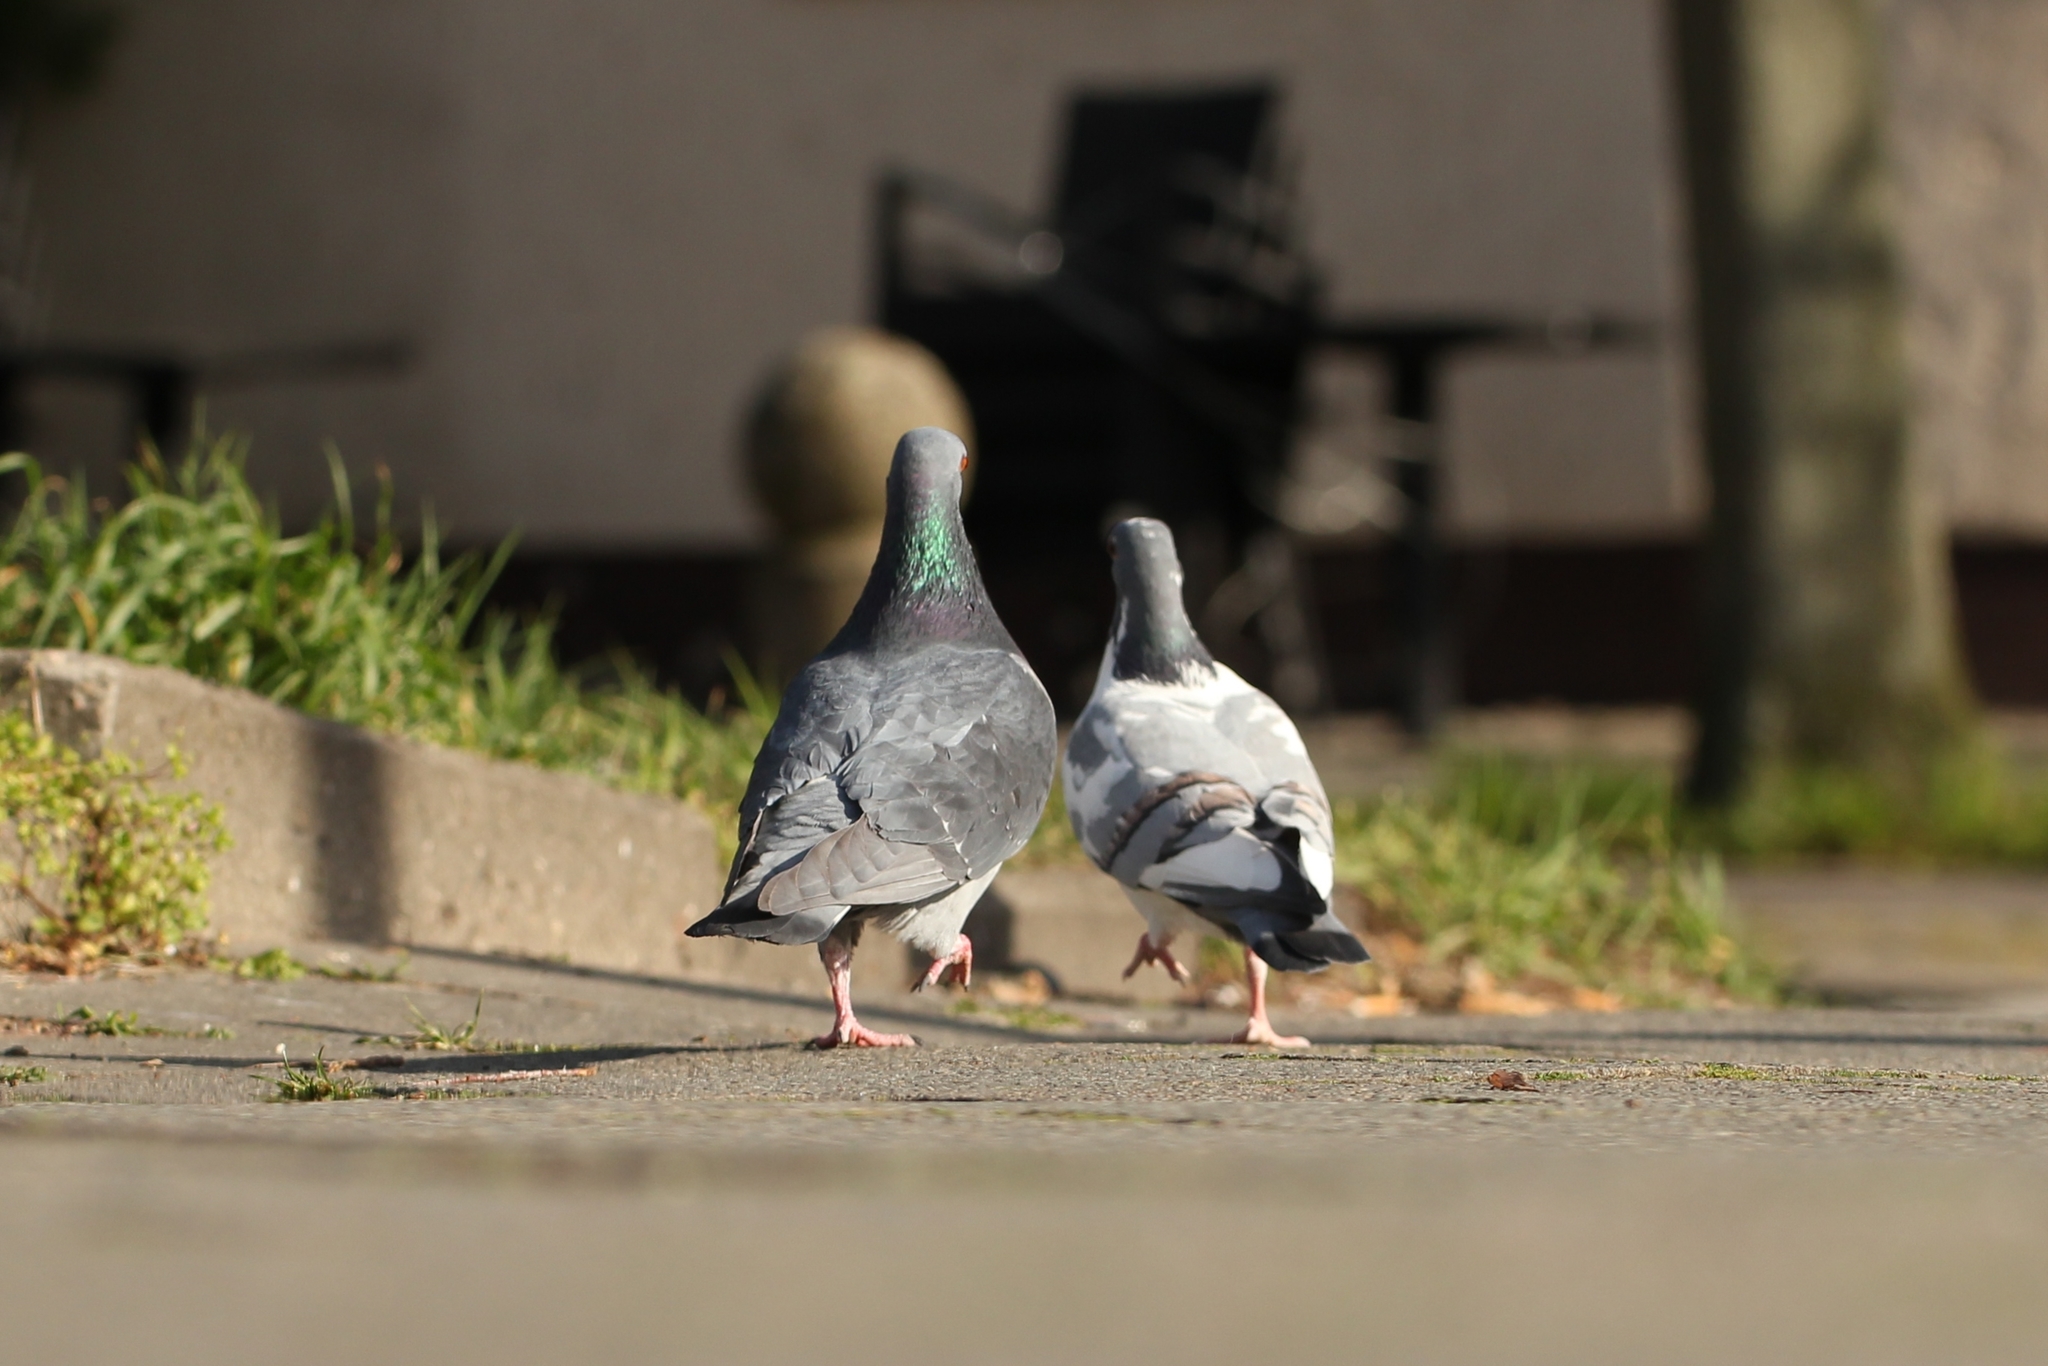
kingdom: Animalia
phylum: Chordata
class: Aves
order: Columbiformes
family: Columbidae
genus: Columba
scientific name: Columba livia
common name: Rock pigeon
